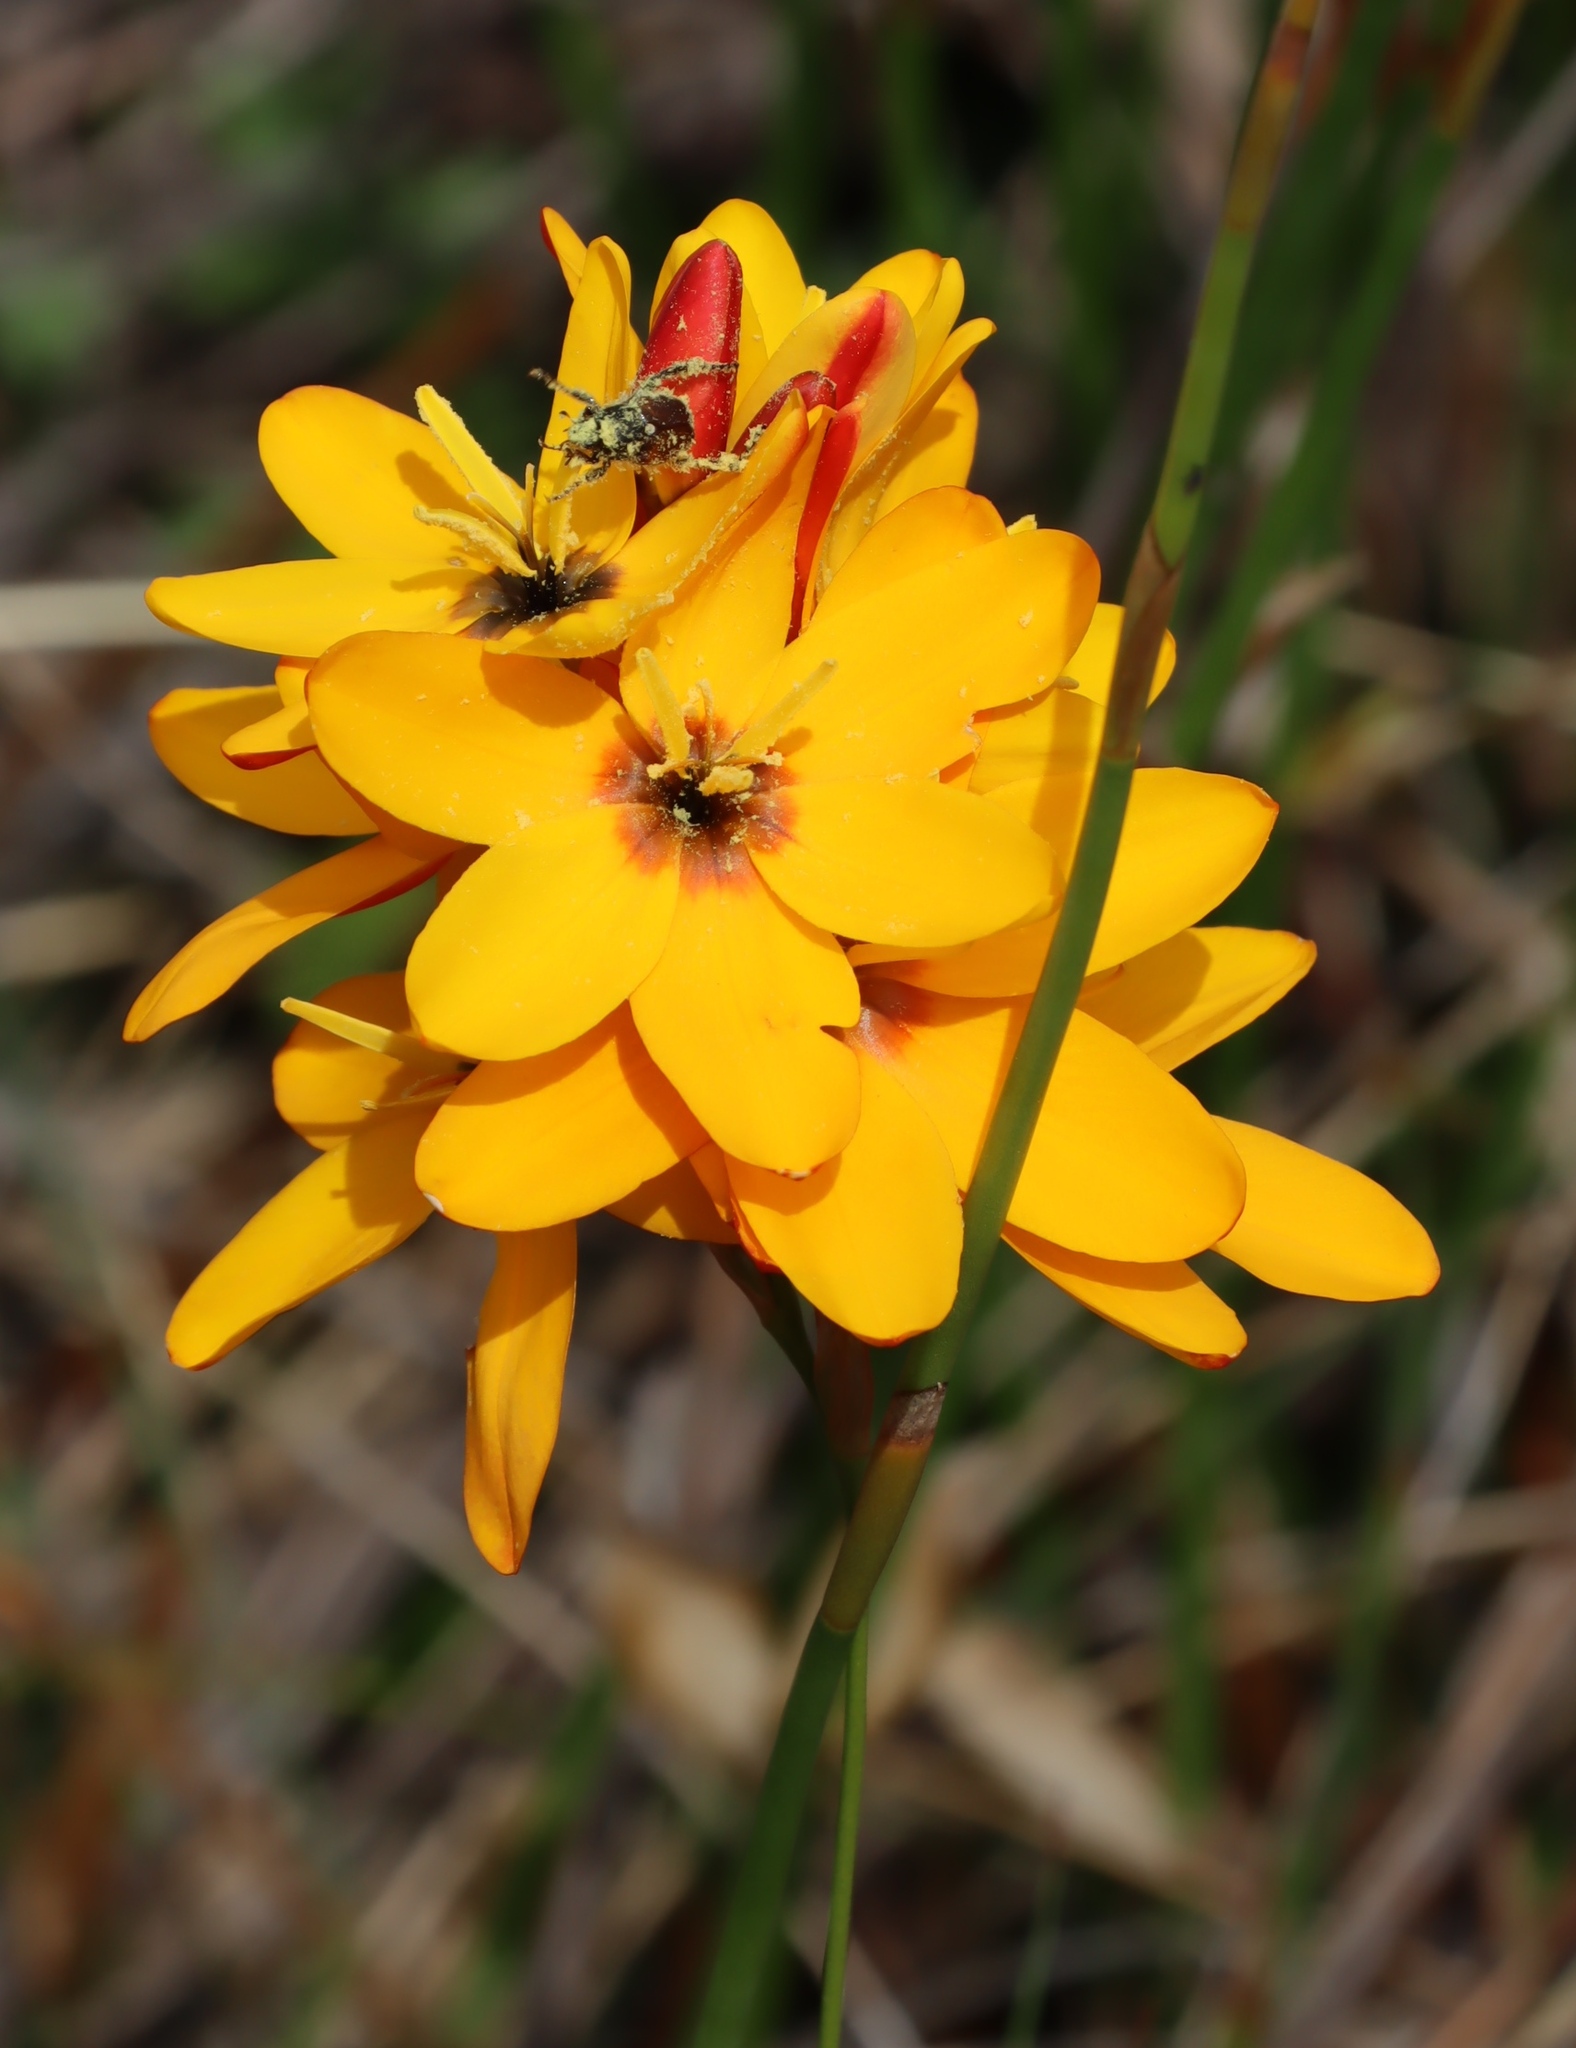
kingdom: Plantae
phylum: Tracheophyta
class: Liliopsida
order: Asparagales
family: Iridaceae
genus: Ixia
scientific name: Ixia dubia
